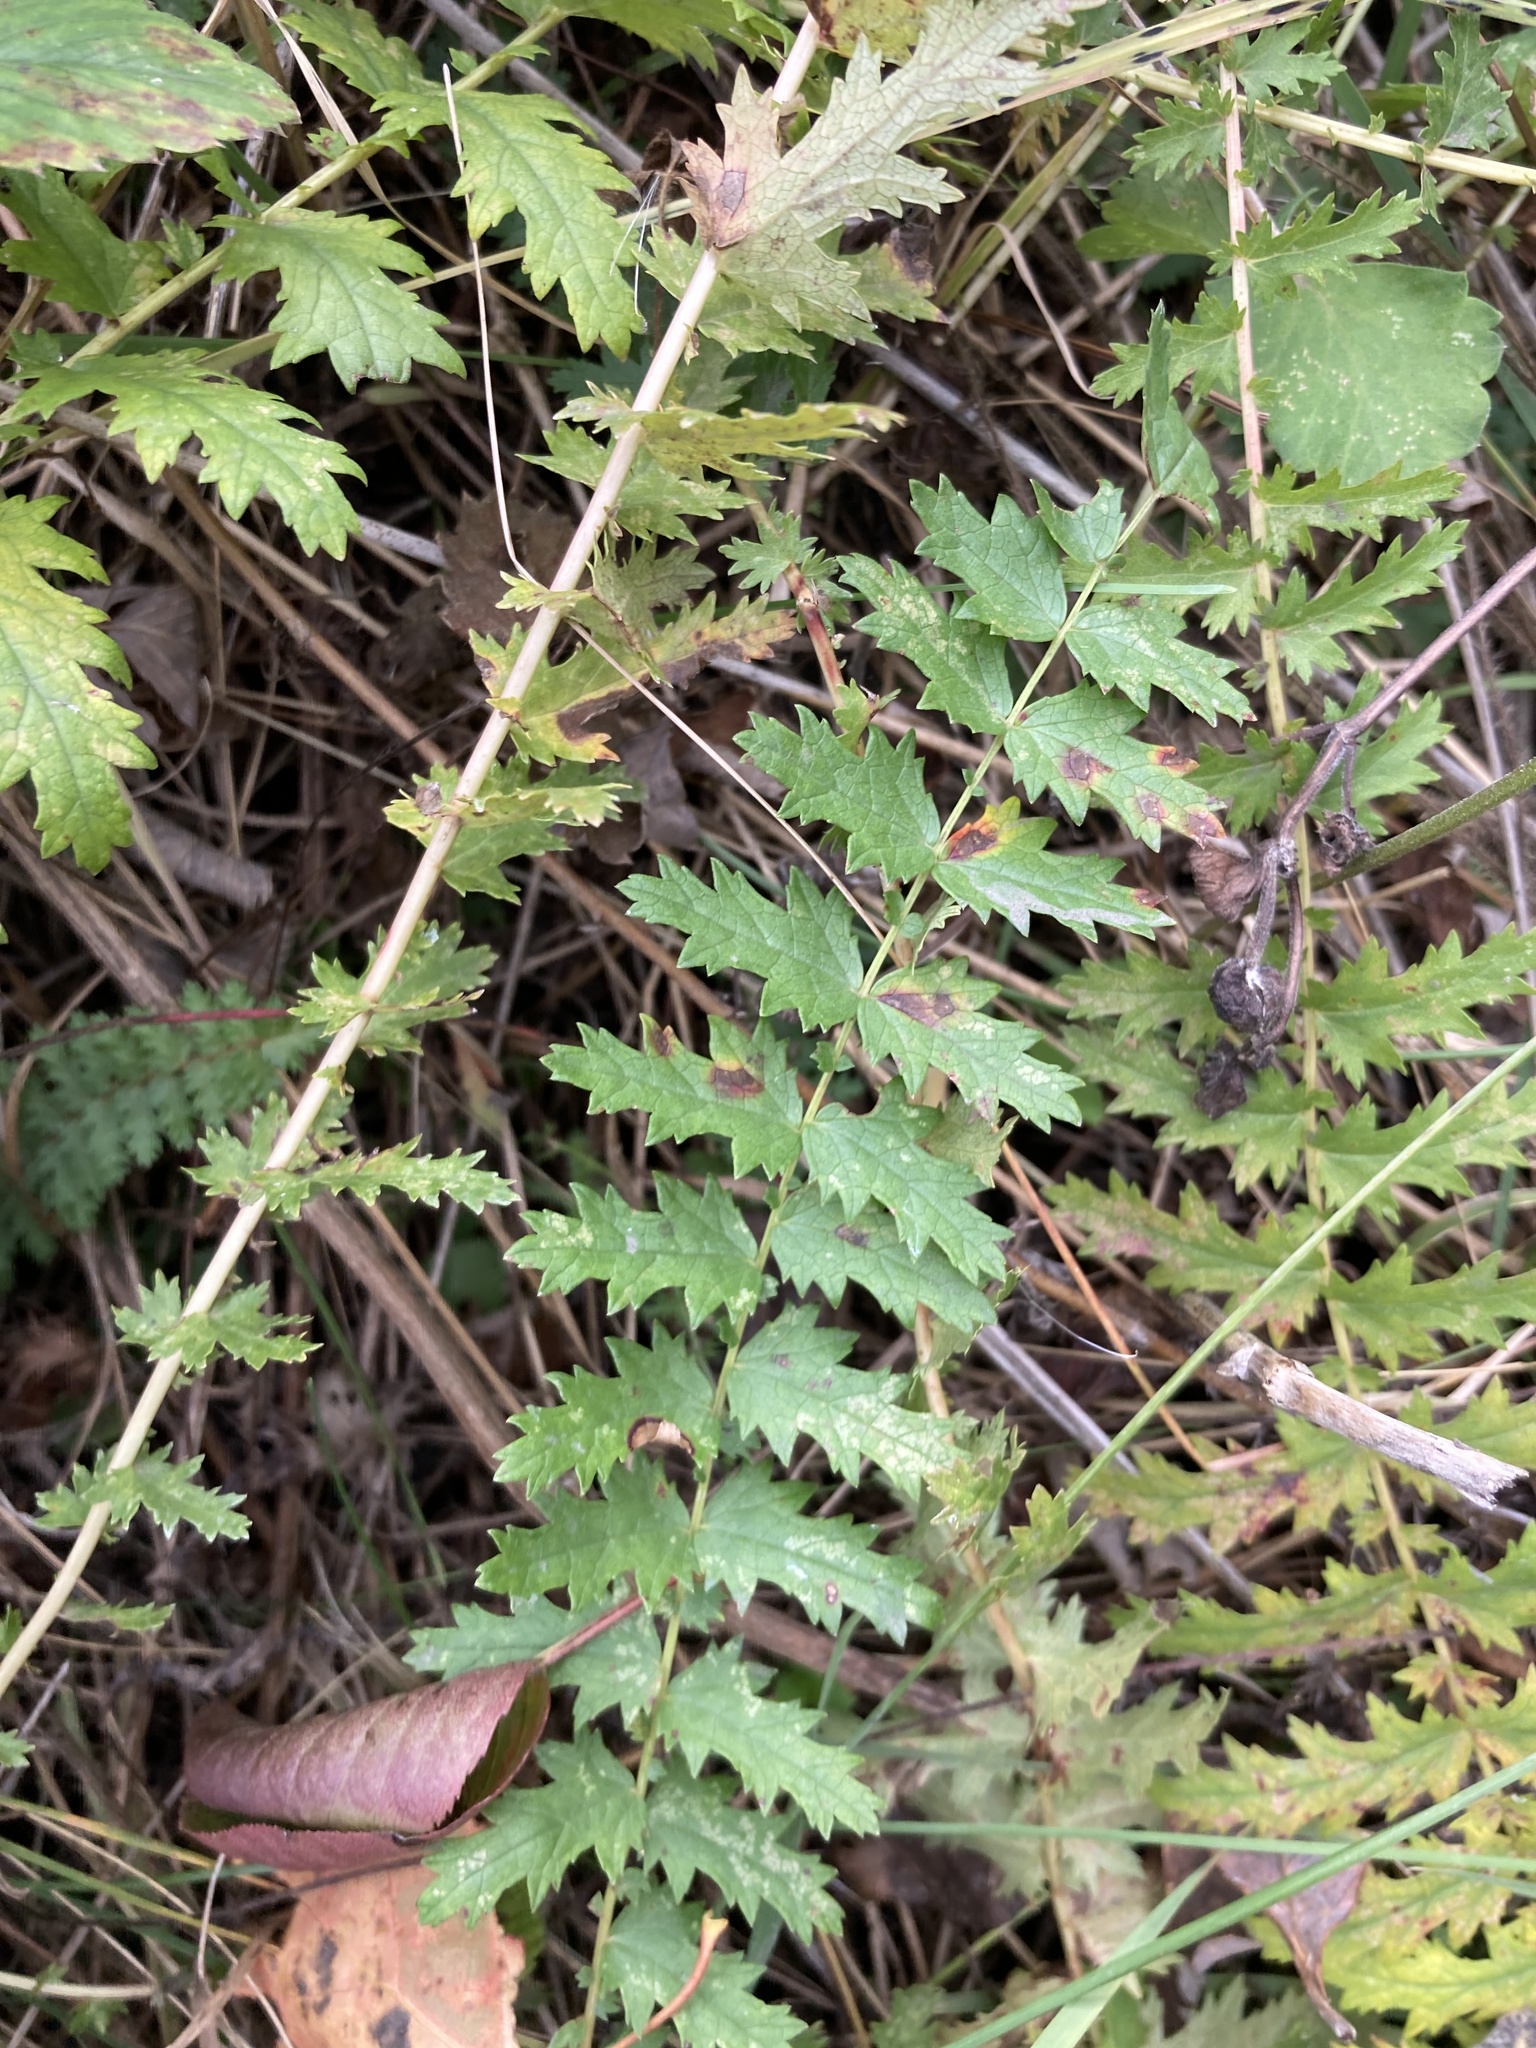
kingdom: Plantae
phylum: Tracheophyta
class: Magnoliopsida
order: Rosales
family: Rosaceae
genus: Filipendula
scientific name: Filipendula vulgaris
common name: Dropwort
